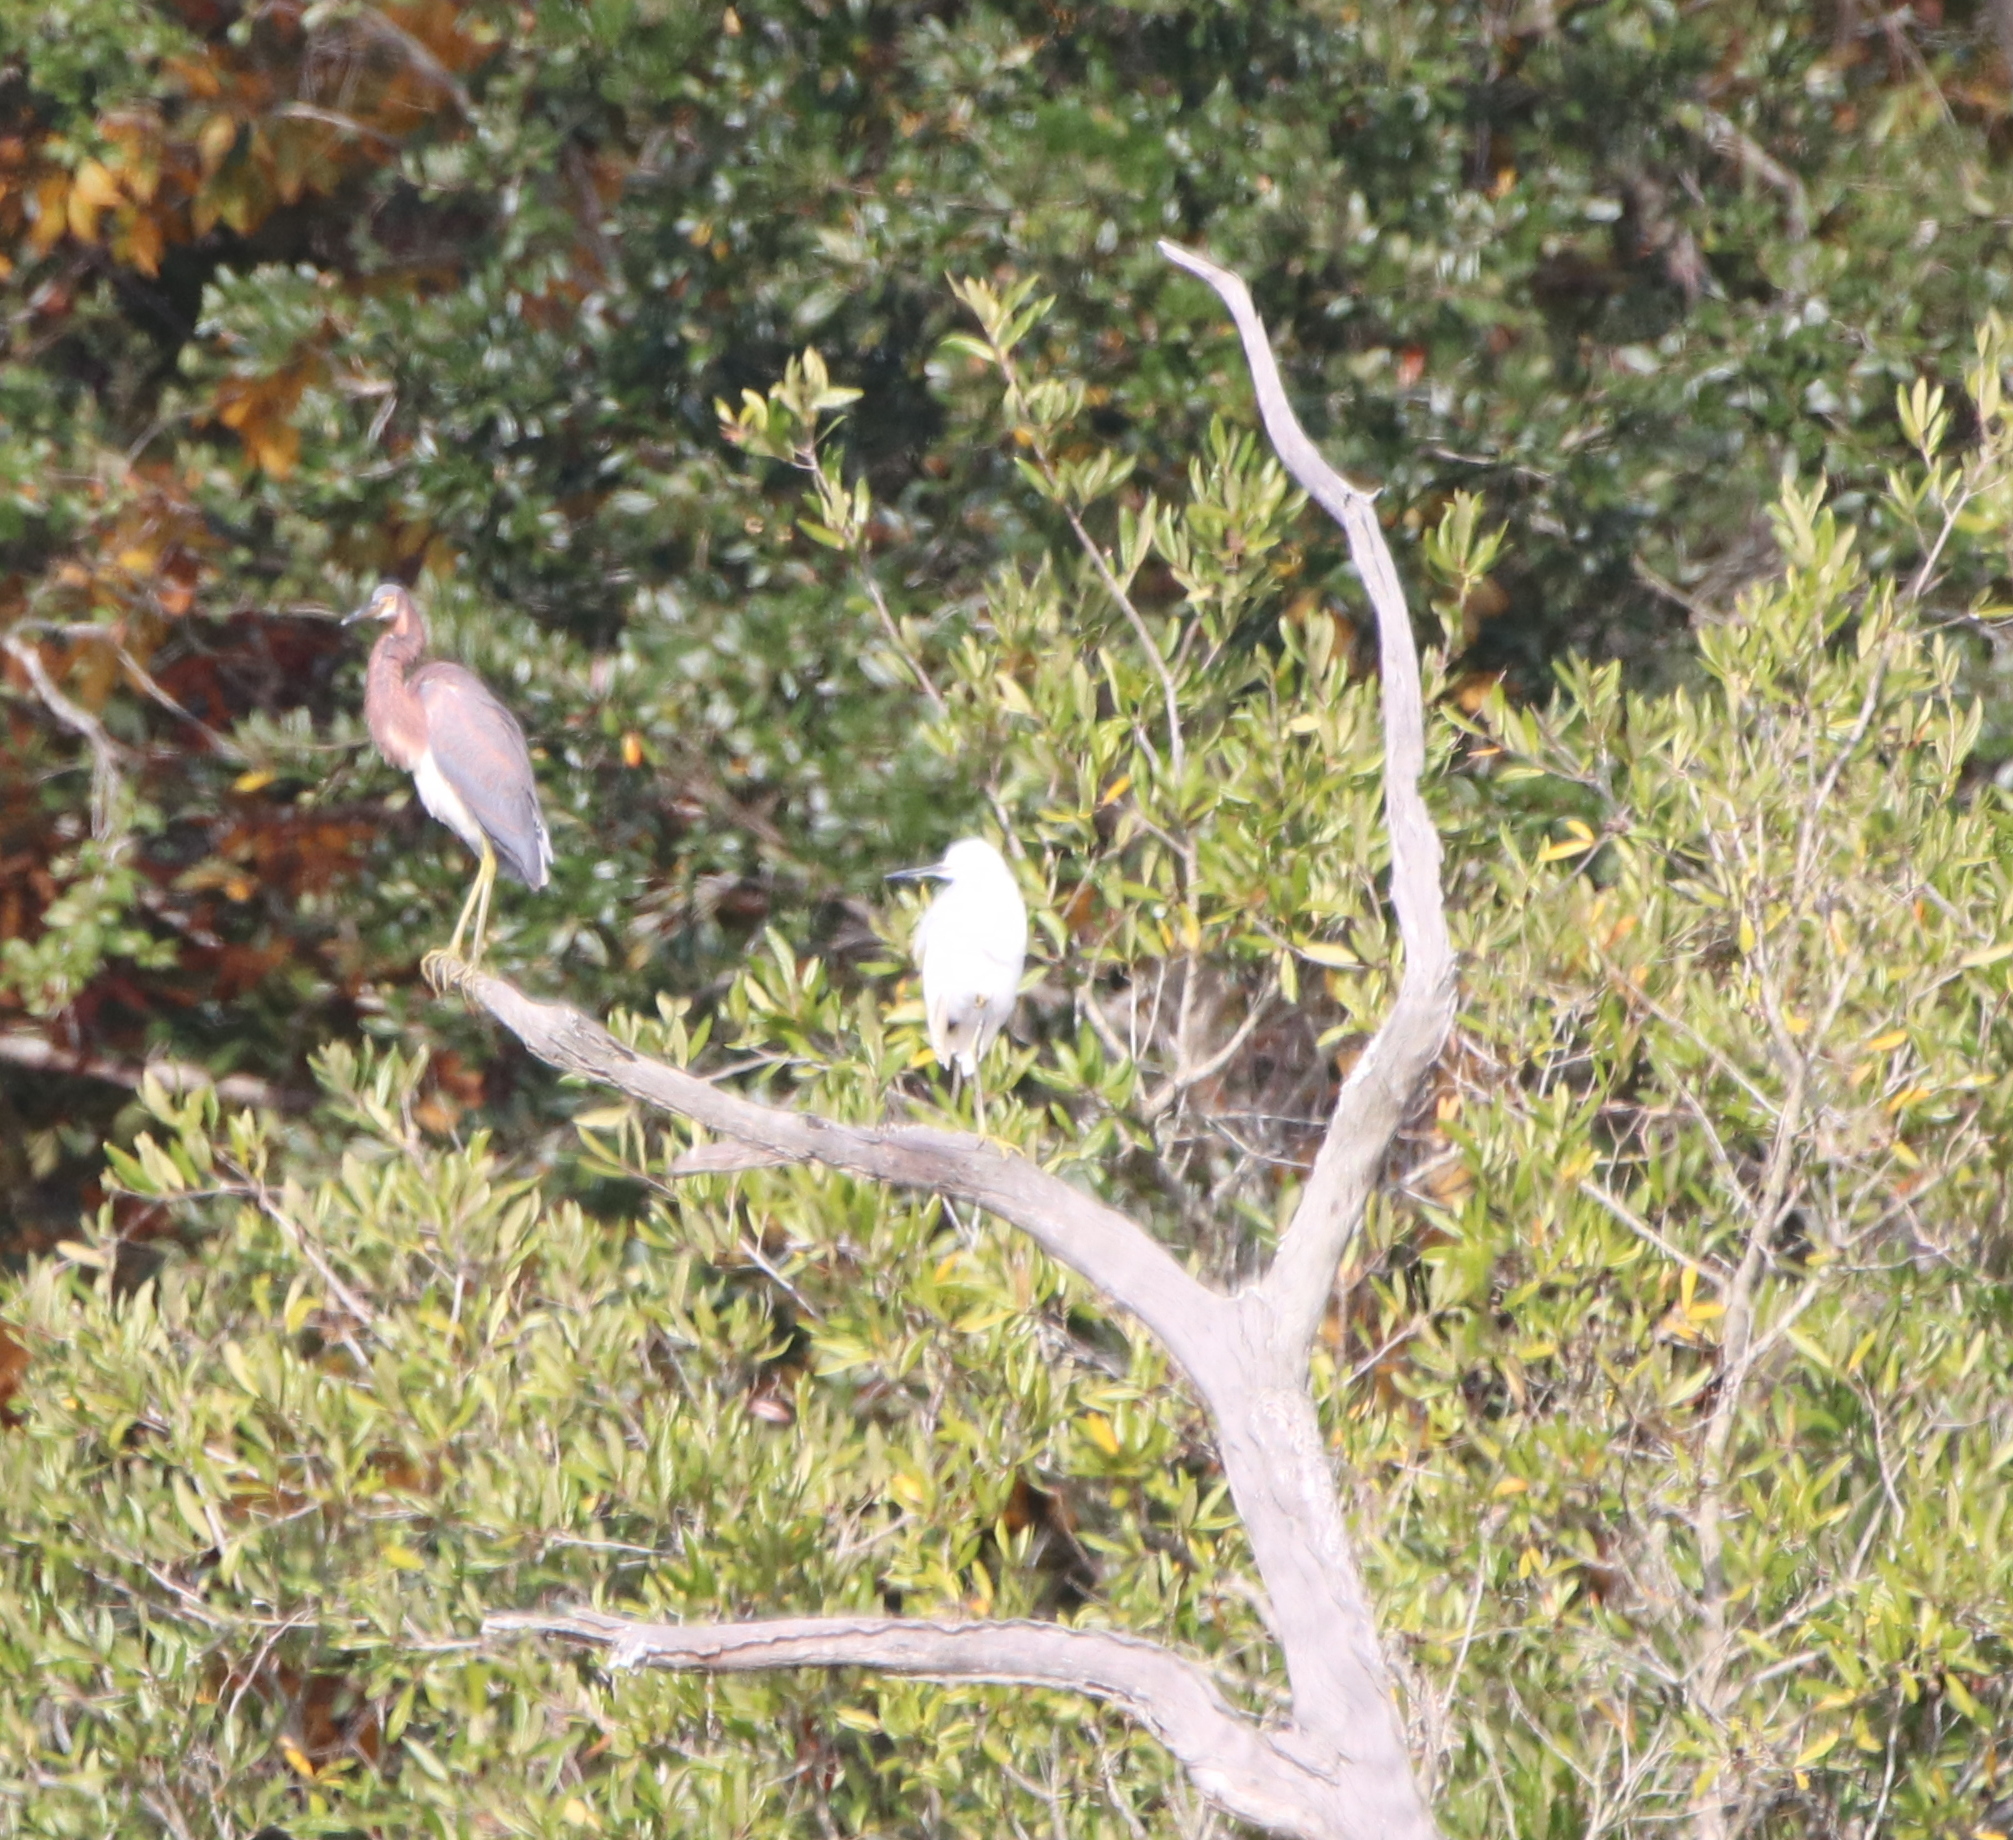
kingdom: Animalia
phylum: Chordata
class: Aves
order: Pelecaniformes
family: Ardeidae
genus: Egretta
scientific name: Egretta tricolor
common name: Tricolored heron
